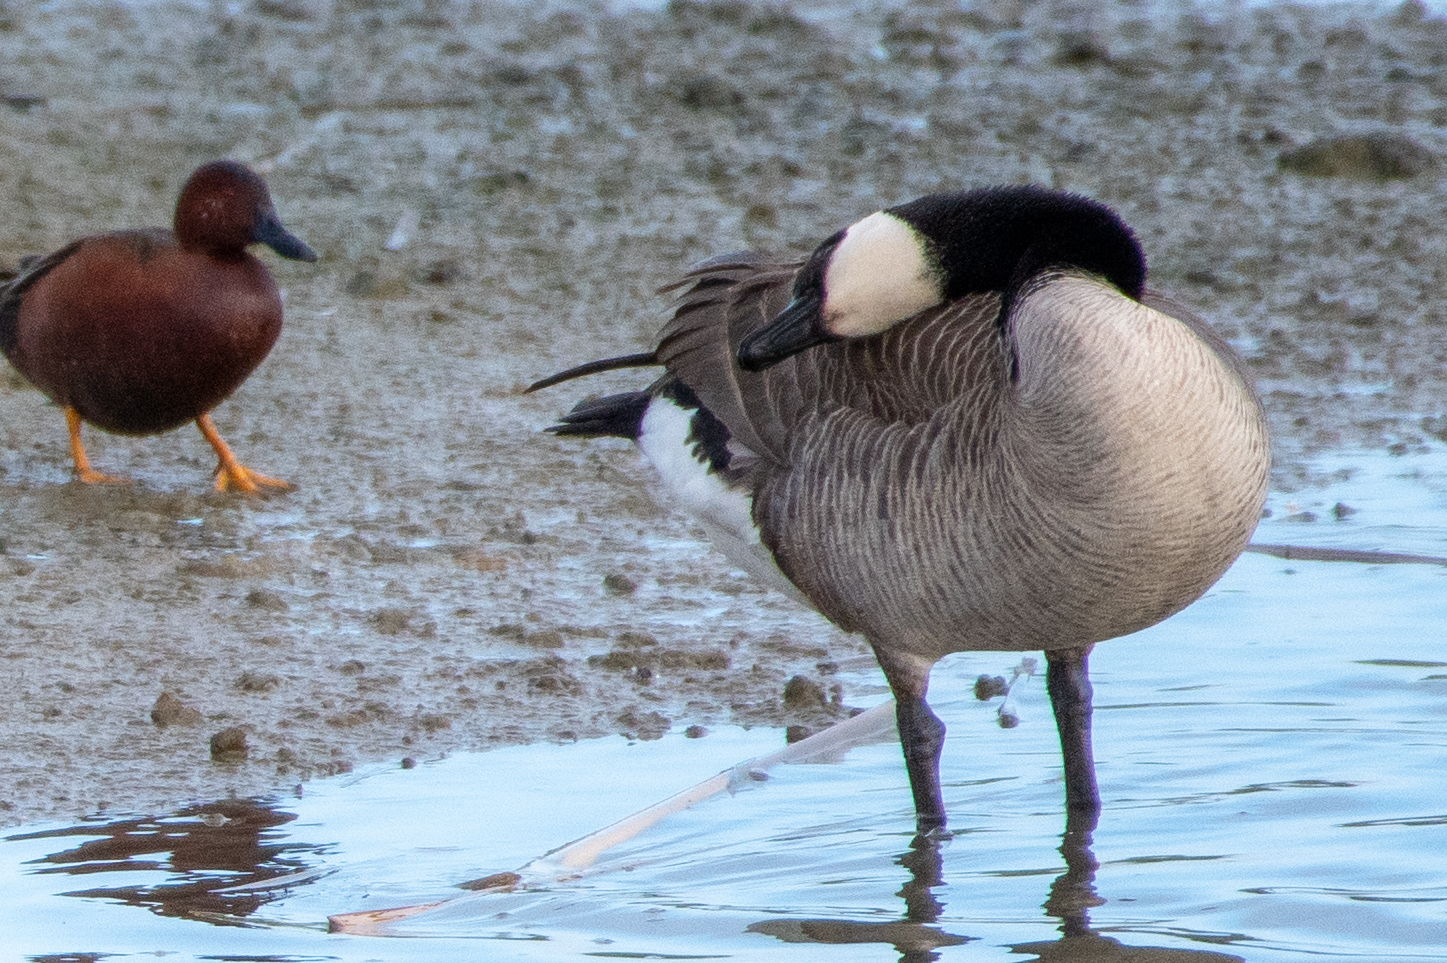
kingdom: Animalia
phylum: Chordata
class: Aves
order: Anseriformes
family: Anatidae
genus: Branta
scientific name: Branta canadensis
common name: Canada goose
